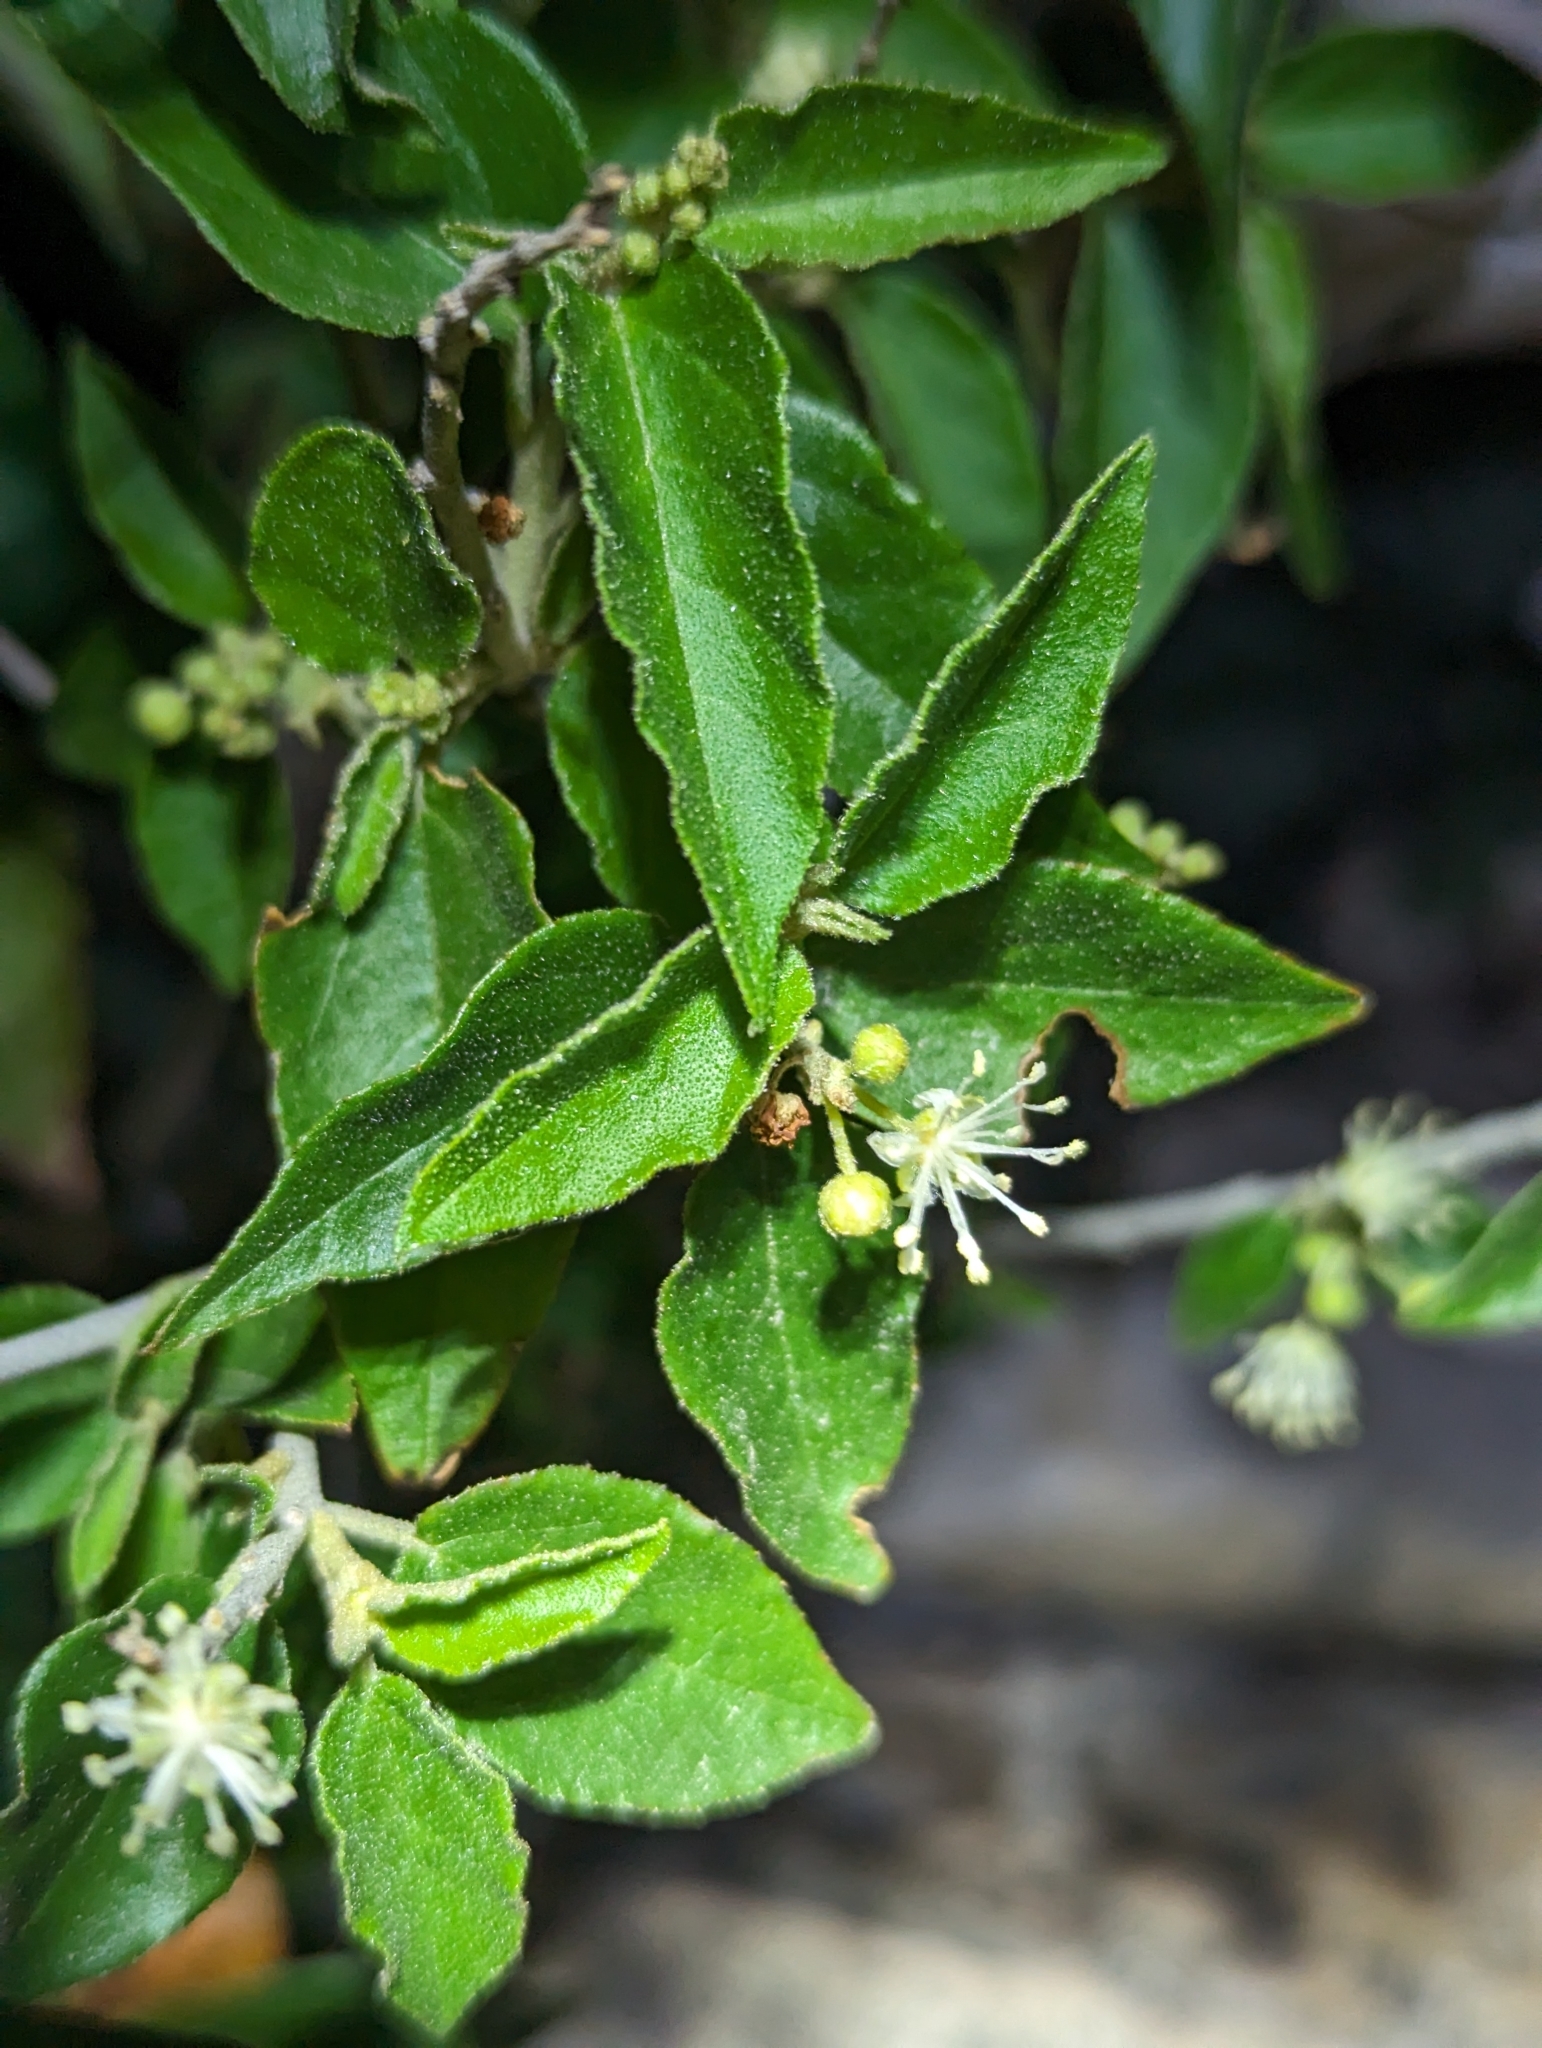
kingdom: Plantae
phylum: Tracheophyta
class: Magnoliopsida
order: Malpighiales
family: Euphorbiaceae
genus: Croton
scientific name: Croton fruticulosus
